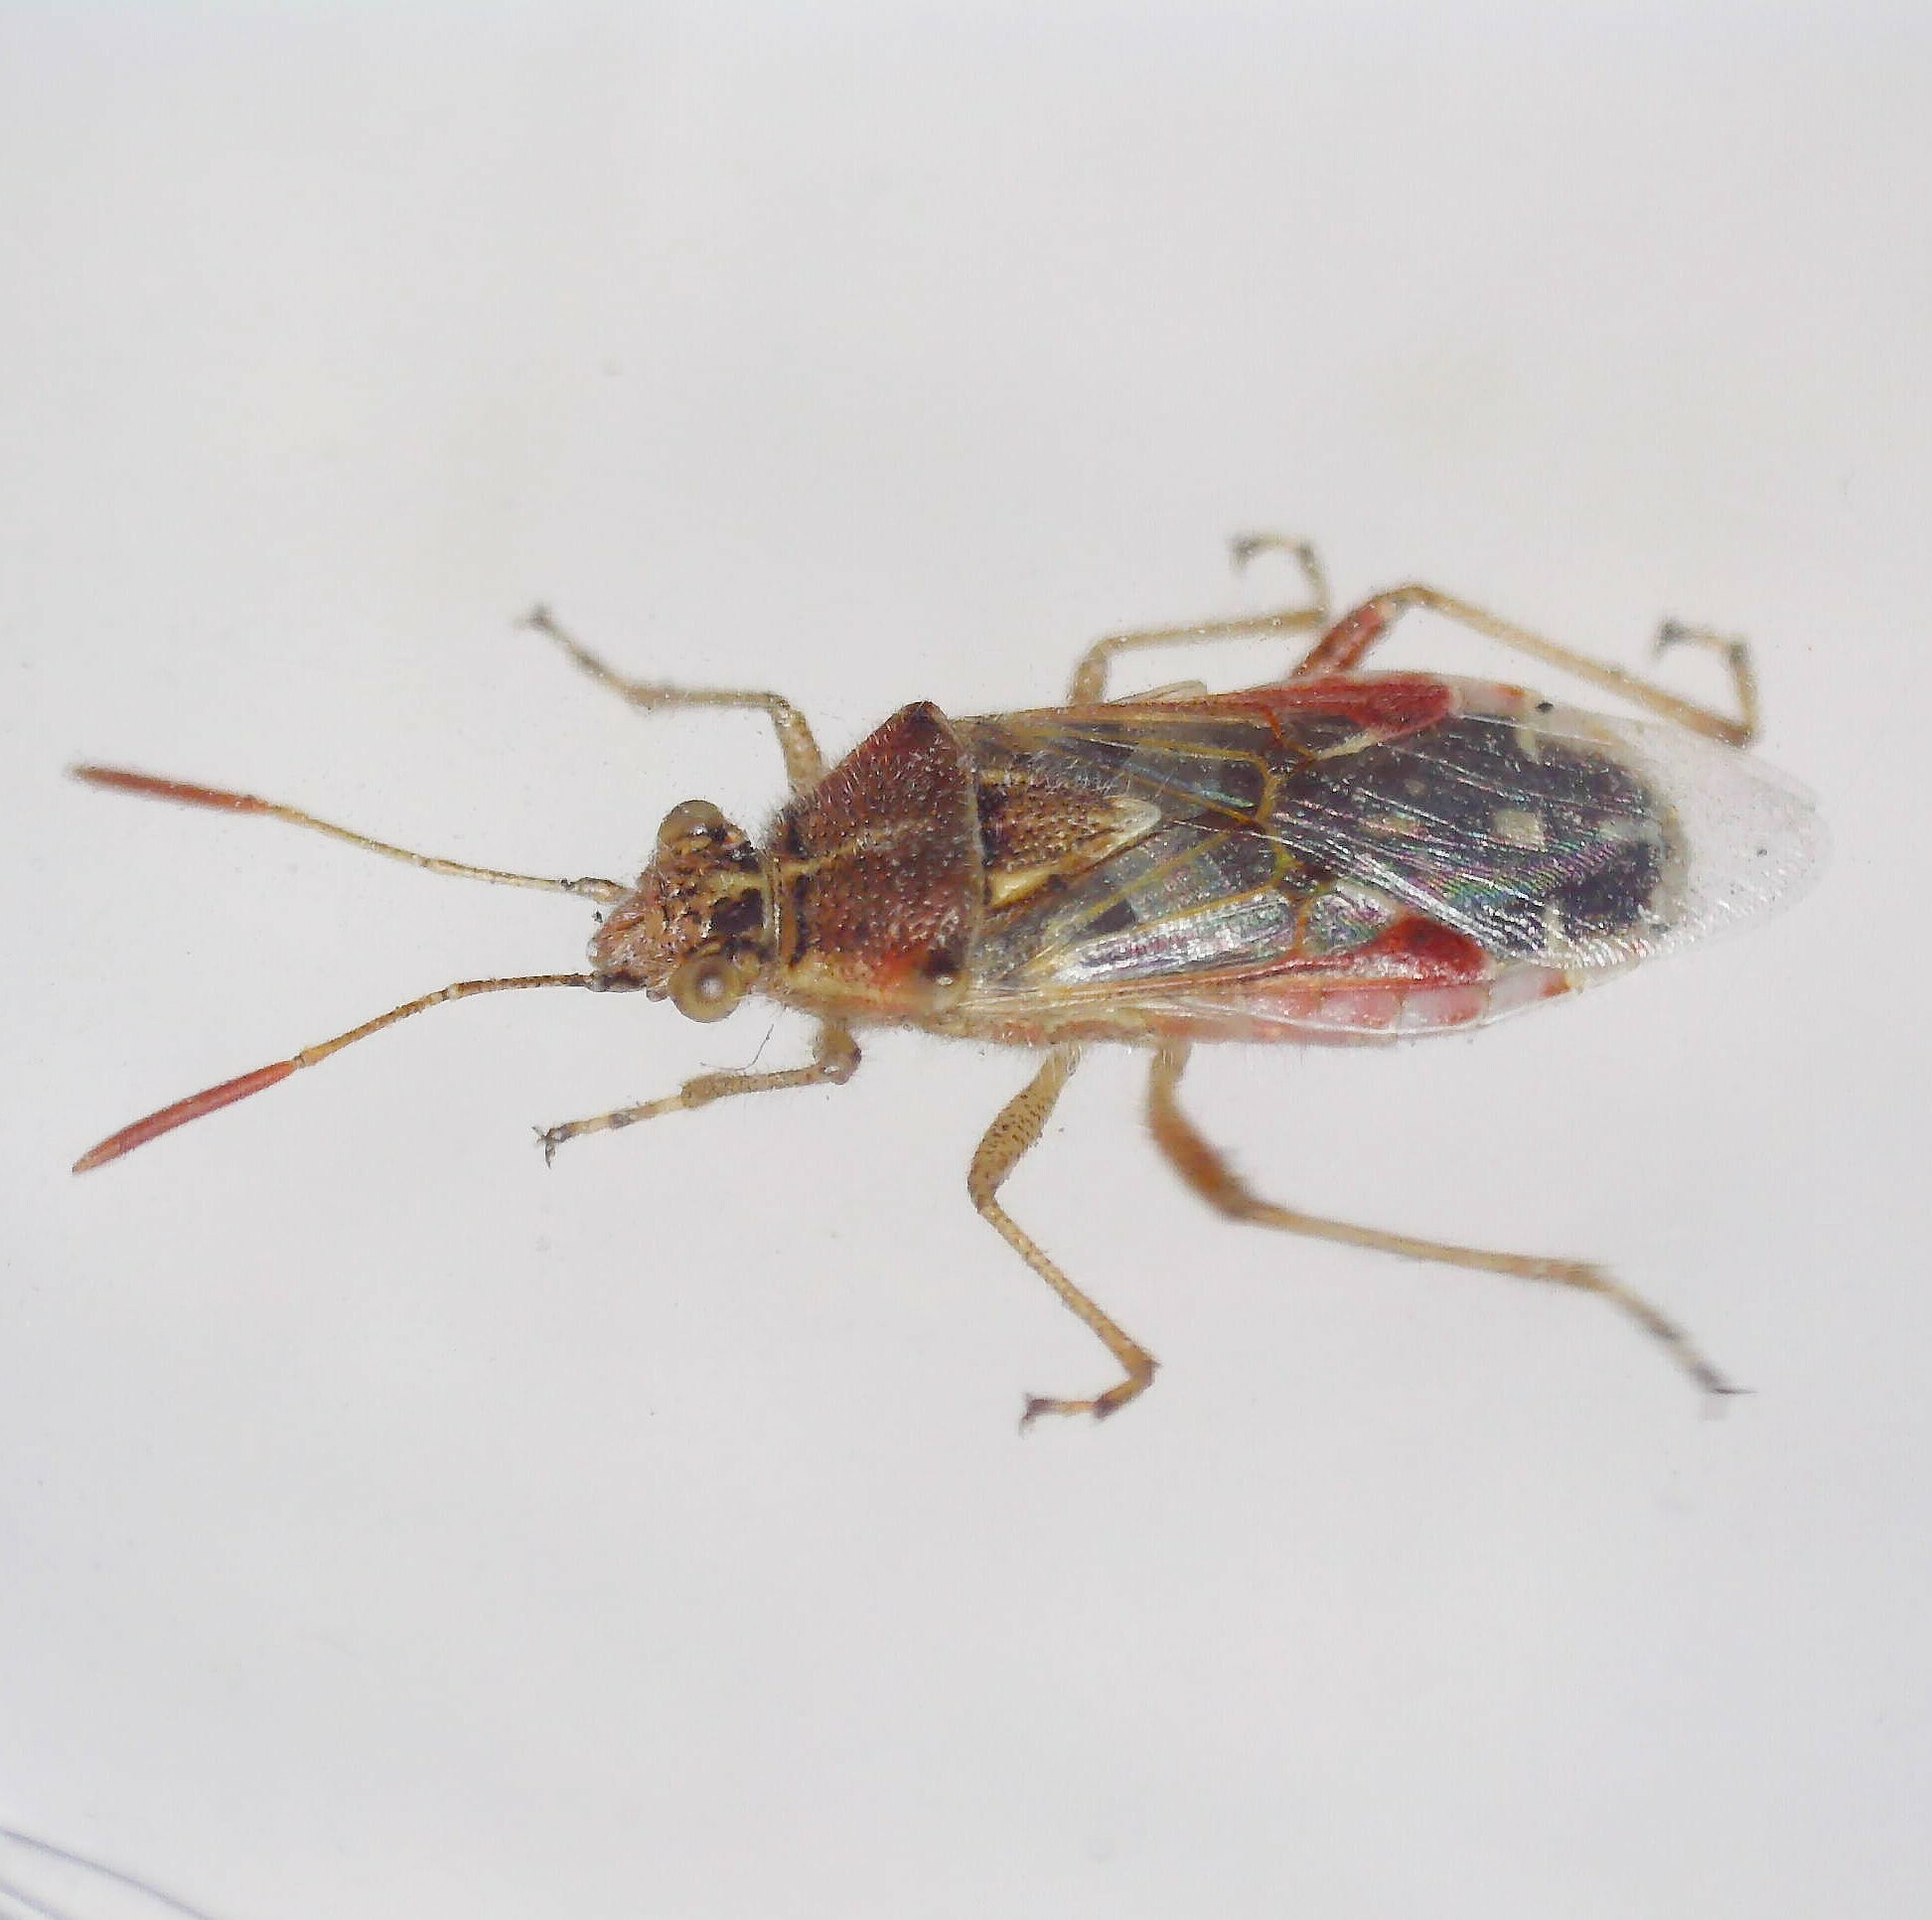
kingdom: Animalia
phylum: Arthropoda
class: Insecta
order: Hemiptera
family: Rhopalidae
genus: Liorhyssus
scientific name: Liorhyssus hyalinus
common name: Scentless plant bug
